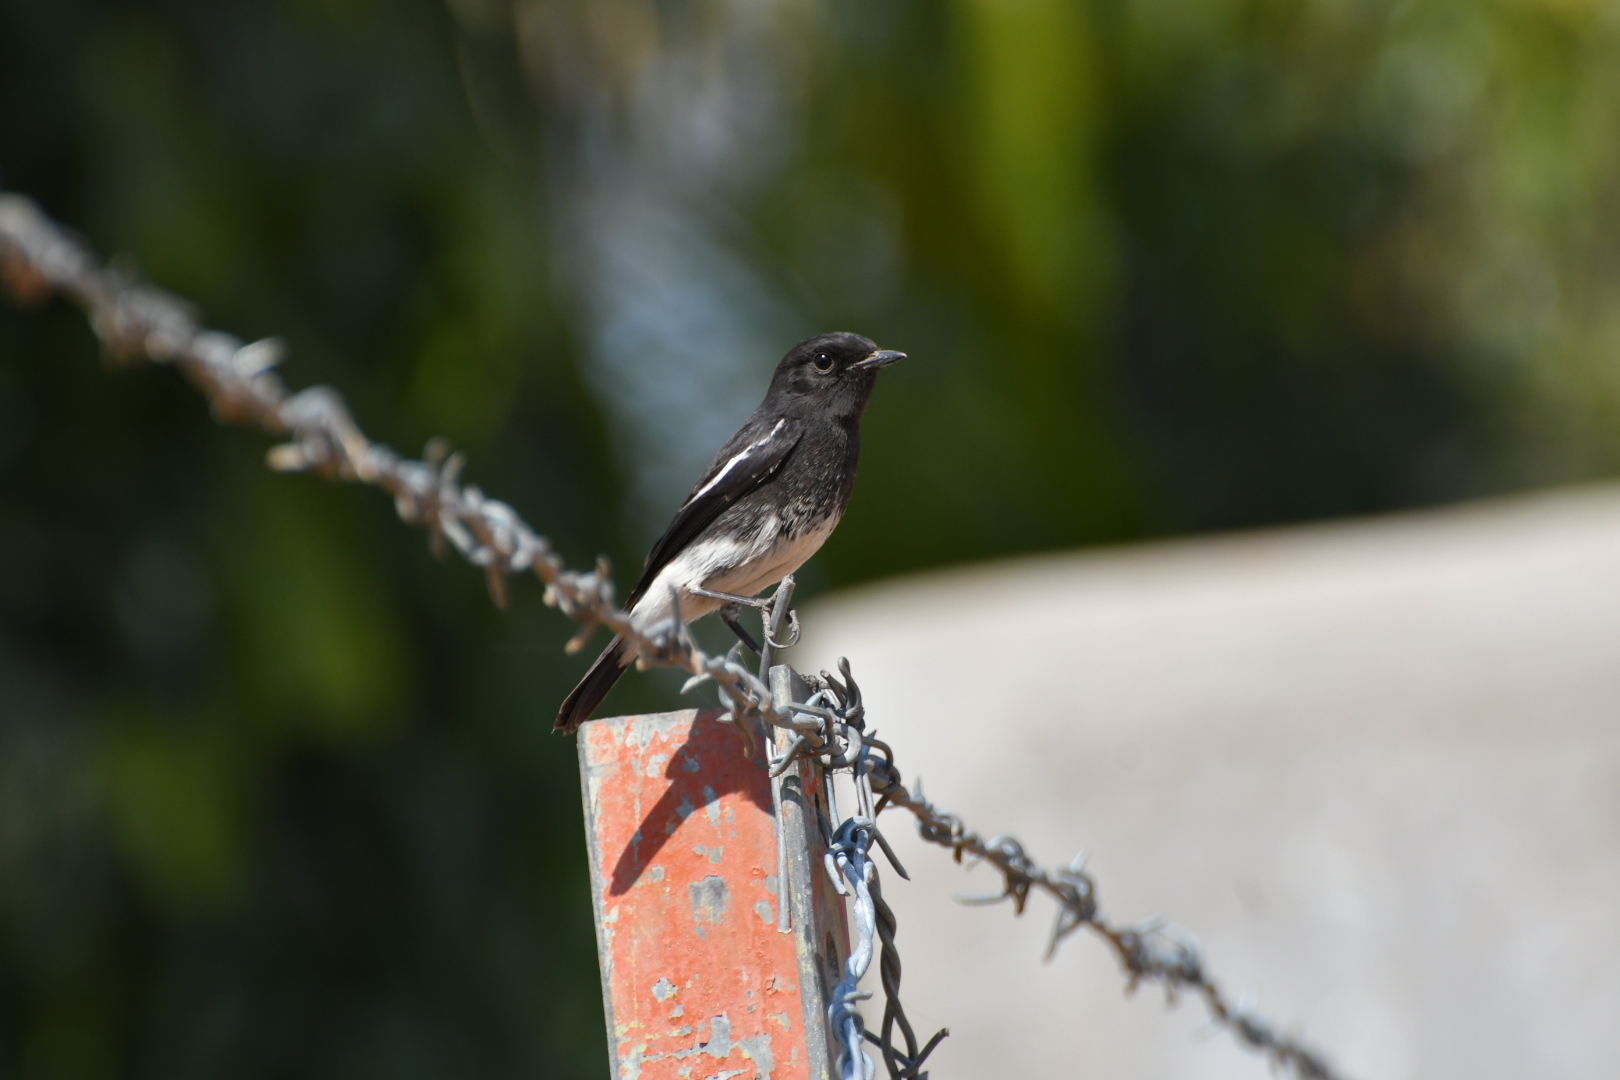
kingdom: Animalia
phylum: Chordata
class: Aves
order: Passeriformes
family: Muscicapidae
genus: Saxicola
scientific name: Saxicola caprata
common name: Pied bush chat
